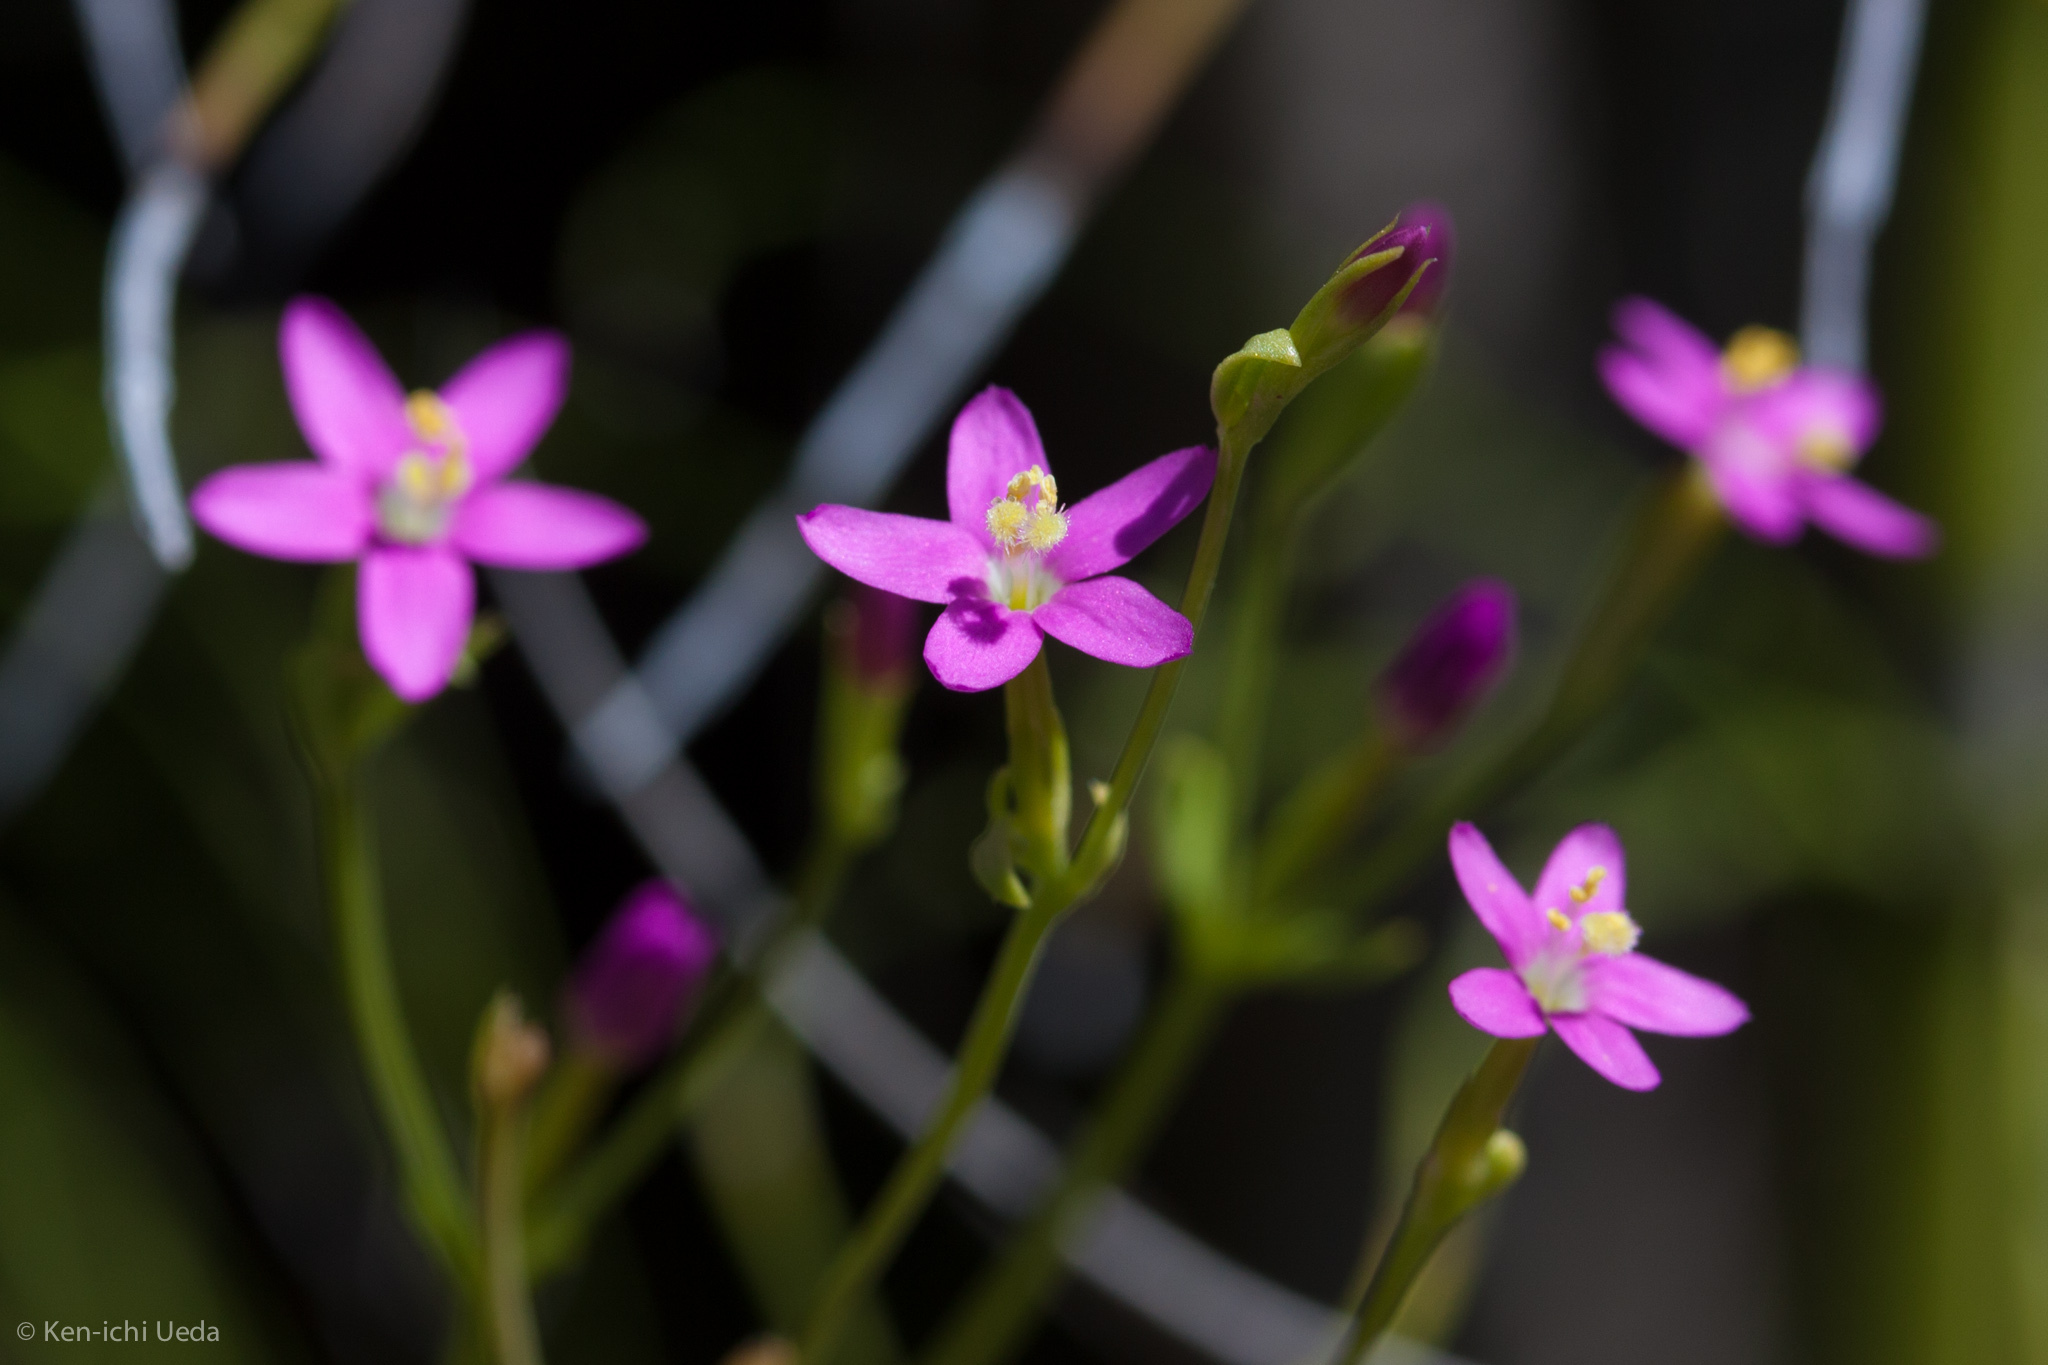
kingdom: Plantae
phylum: Tracheophyta
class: Magnoliopsida
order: Gentianales
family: Gentianaceae
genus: Centaurium
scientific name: Centaurium tenuiflorum
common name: Slender centaury
